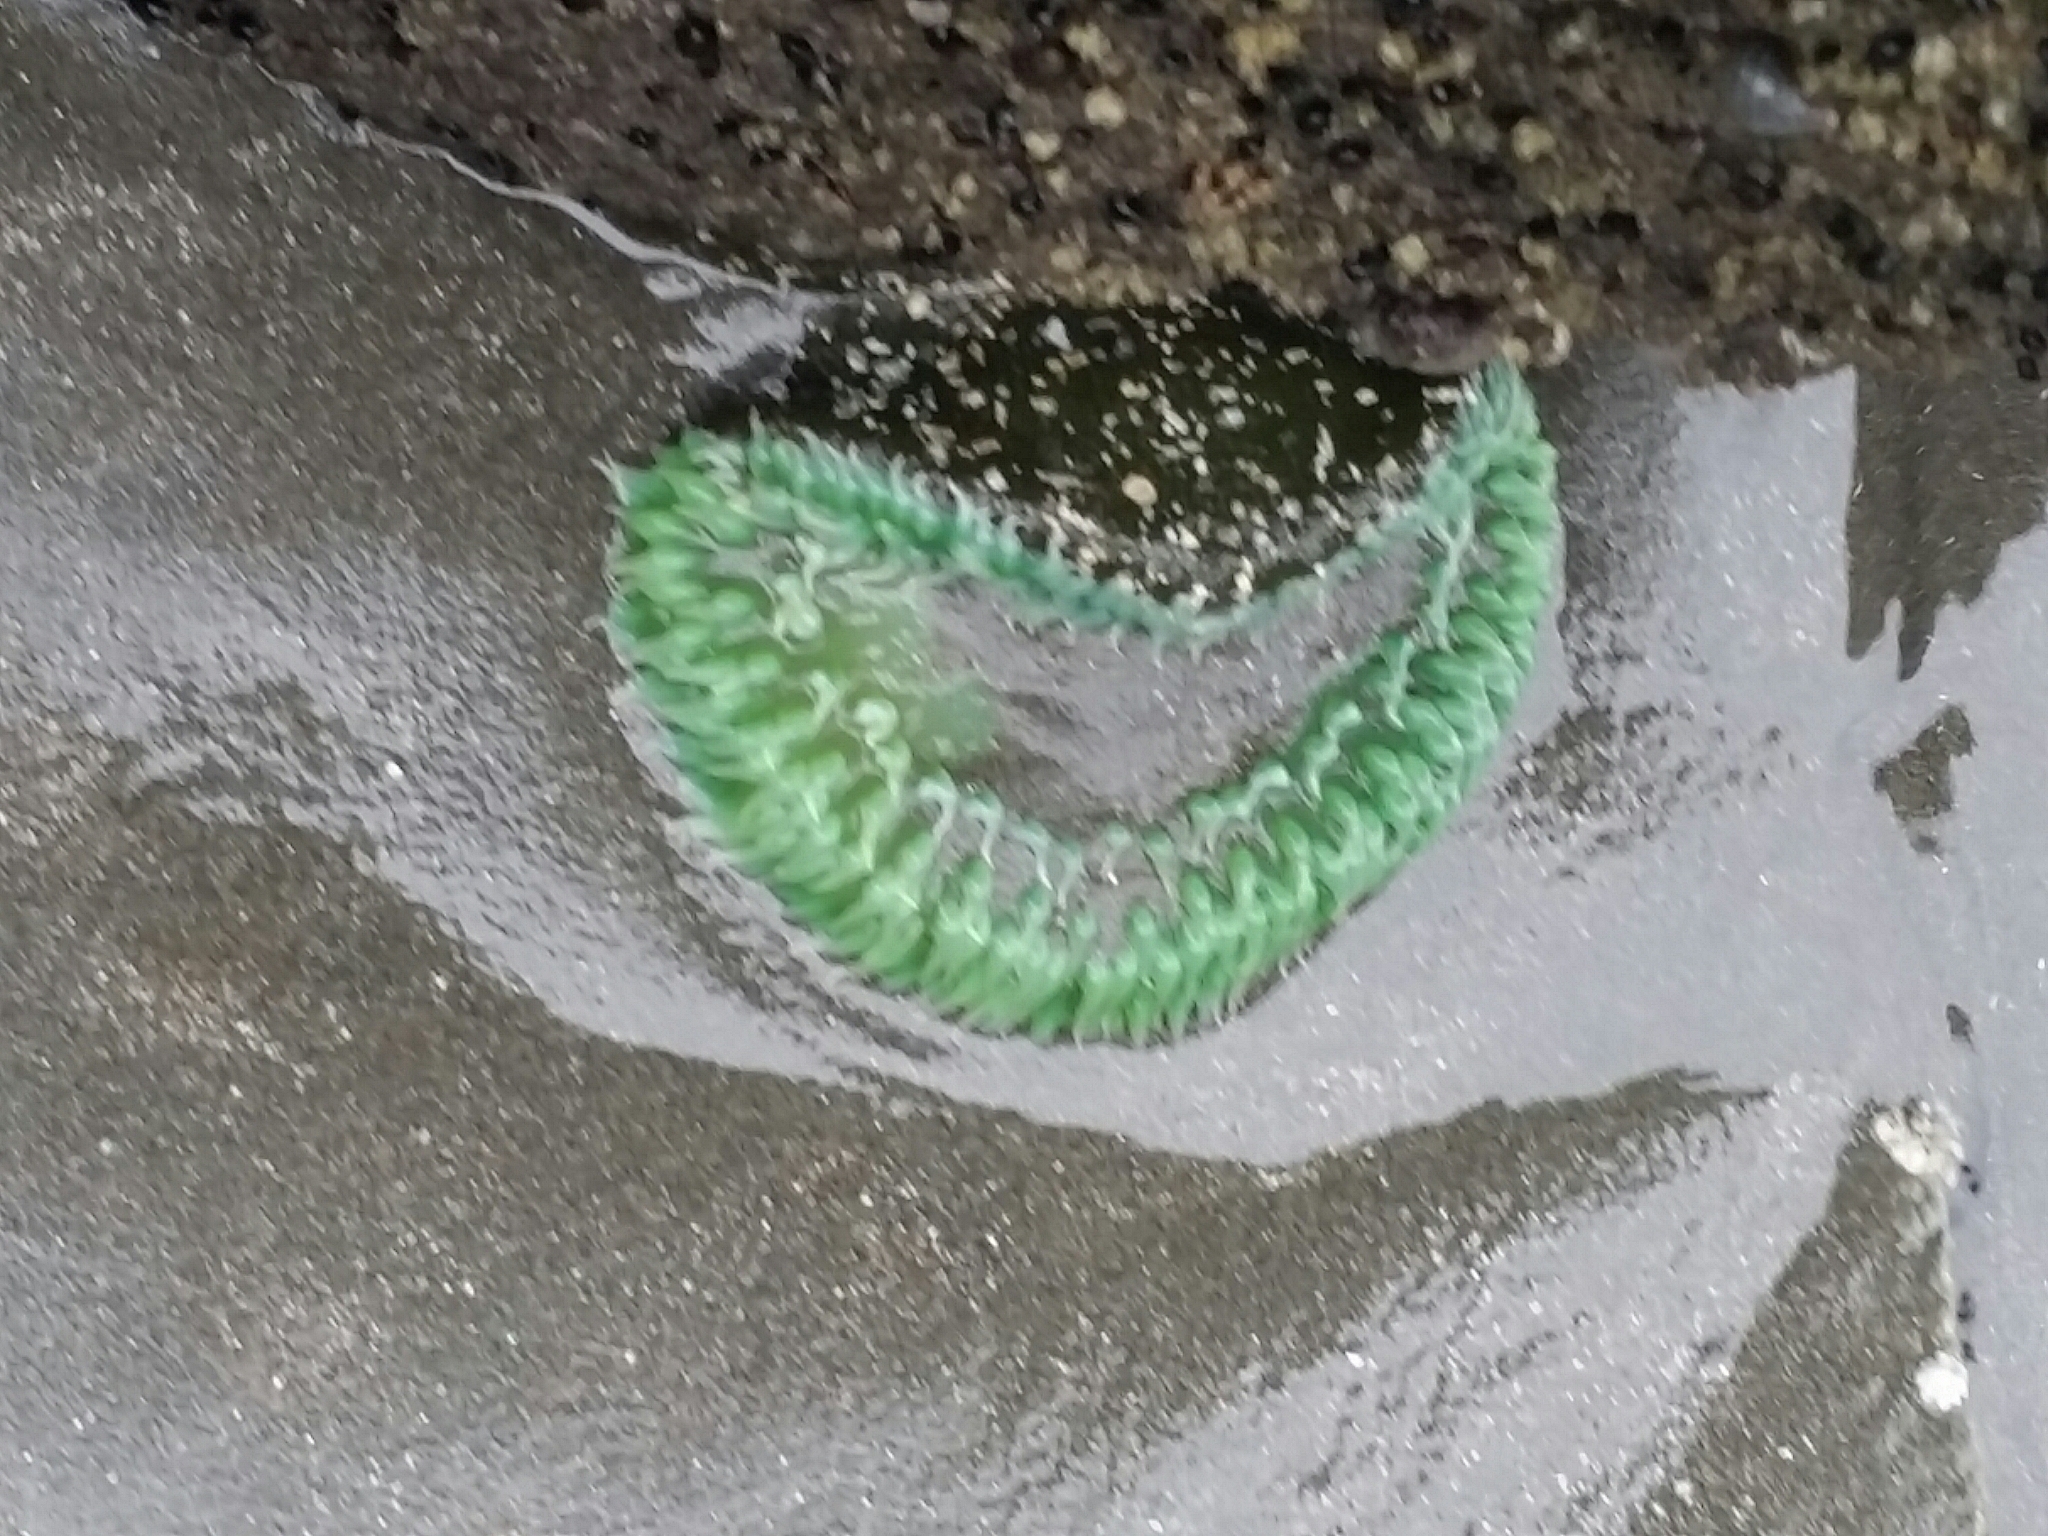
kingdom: Animalia
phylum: Cnidaria
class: Anthozoa
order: Actiniaria
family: Actiniidae
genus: Anthopleura
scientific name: Anthopleura xanthogrammica
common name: Giant green anemone
